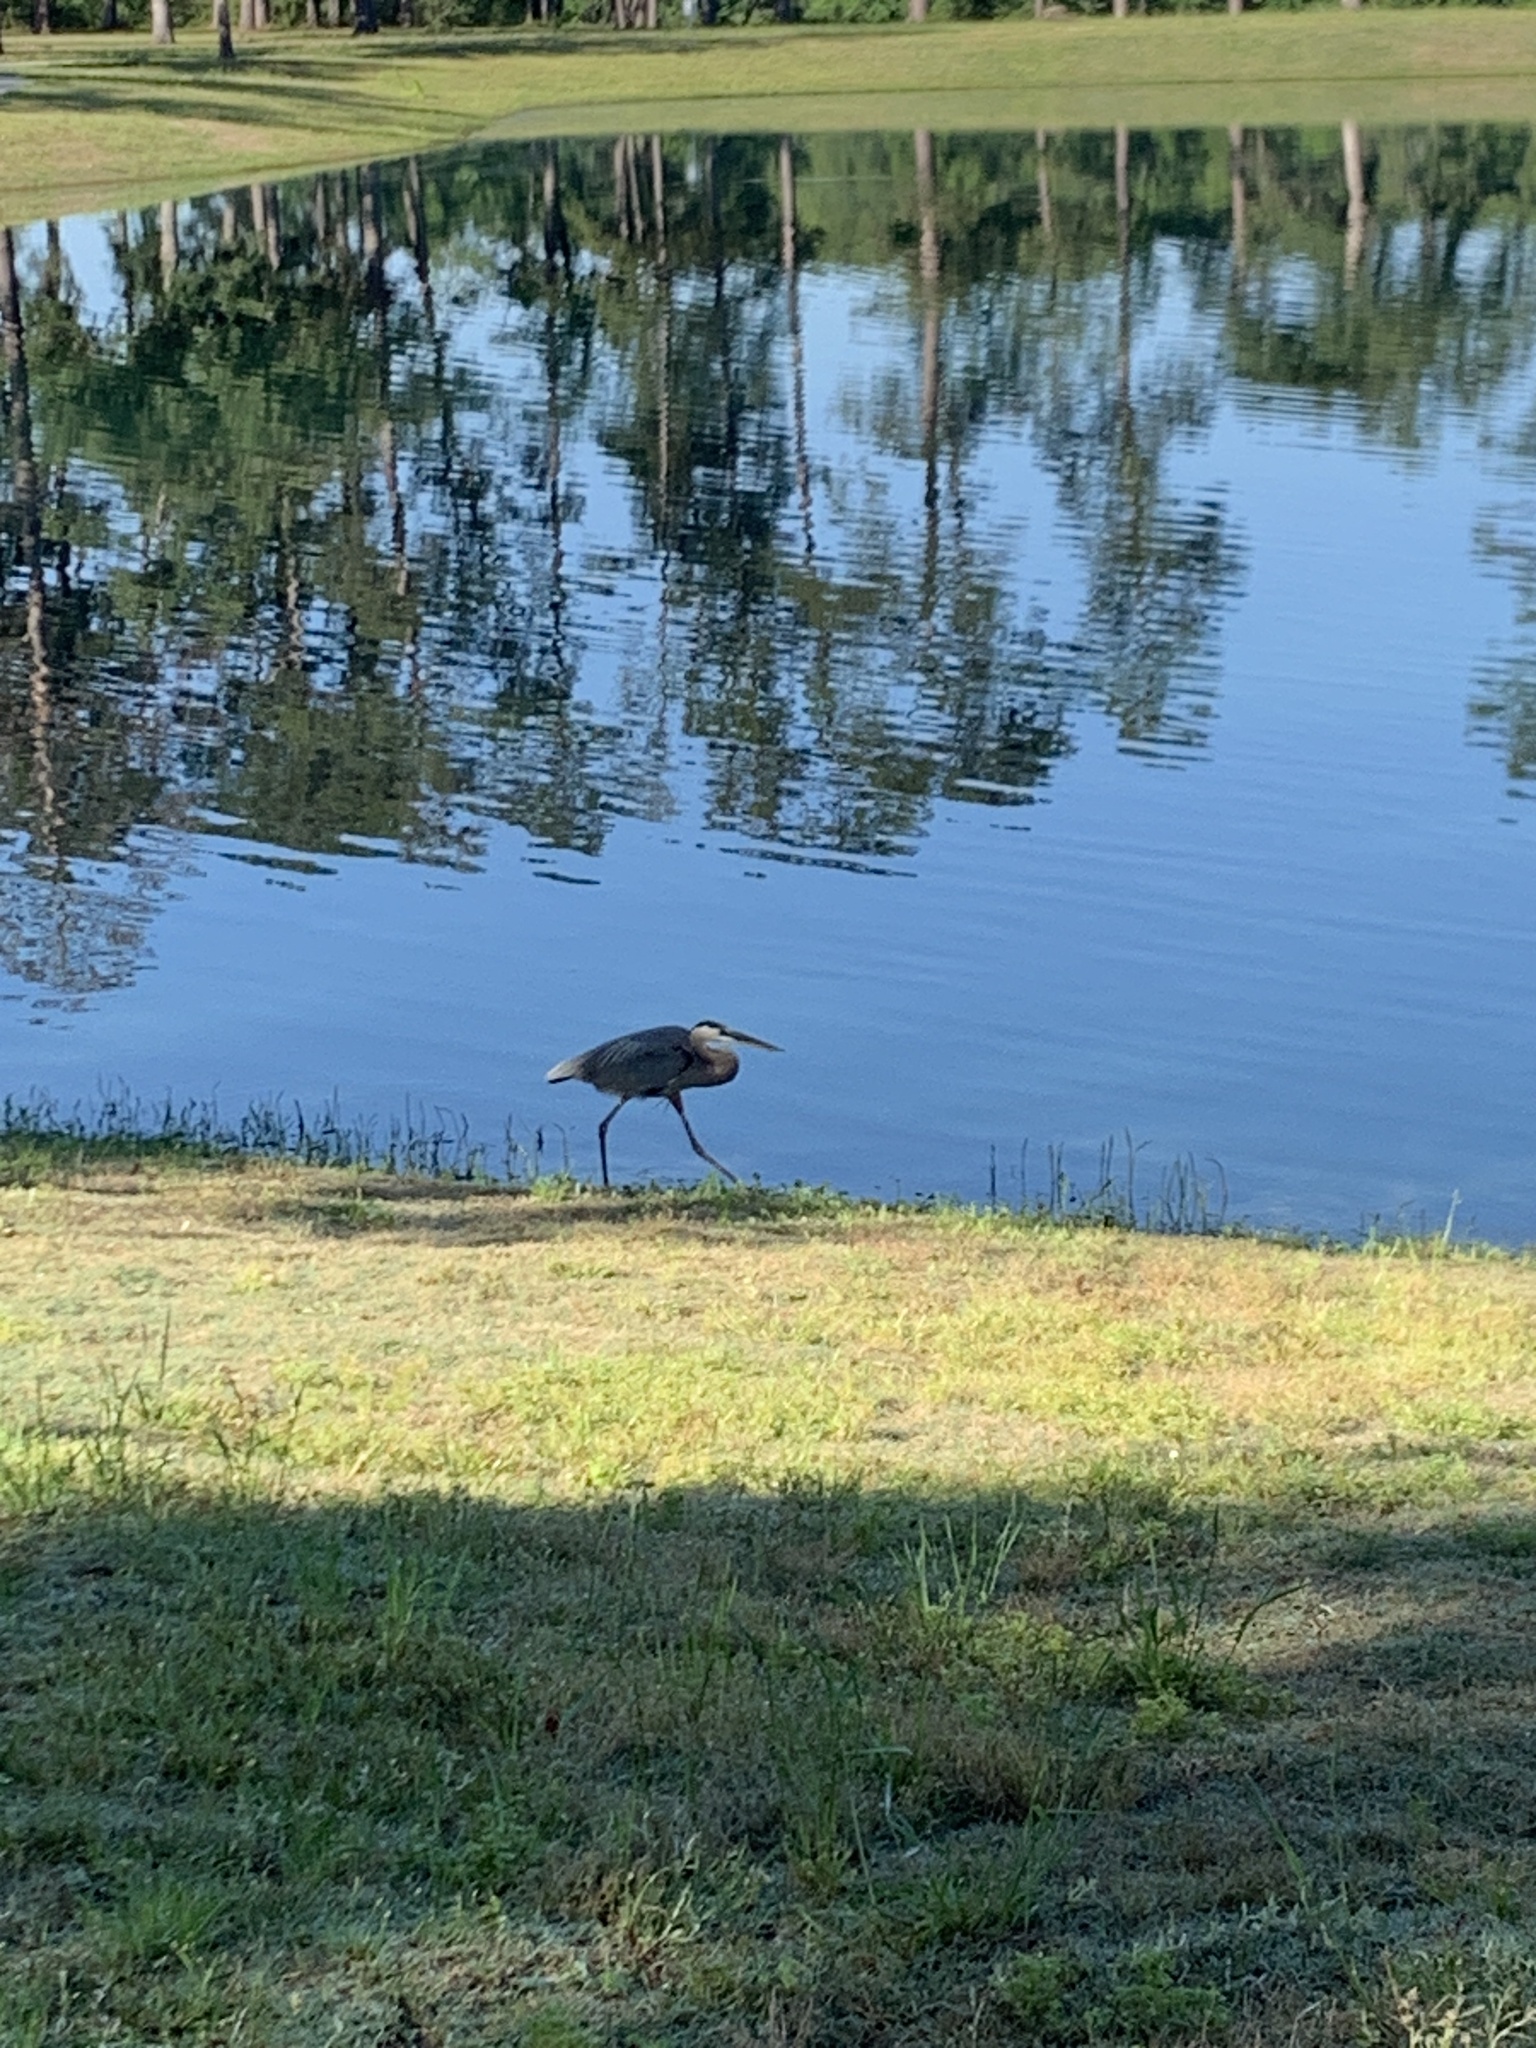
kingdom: Animalia
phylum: Chordata
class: Aves
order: Pelecaniformes
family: Ardeidae
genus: Ardea
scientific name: Ardea herodias
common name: Great blue heron
